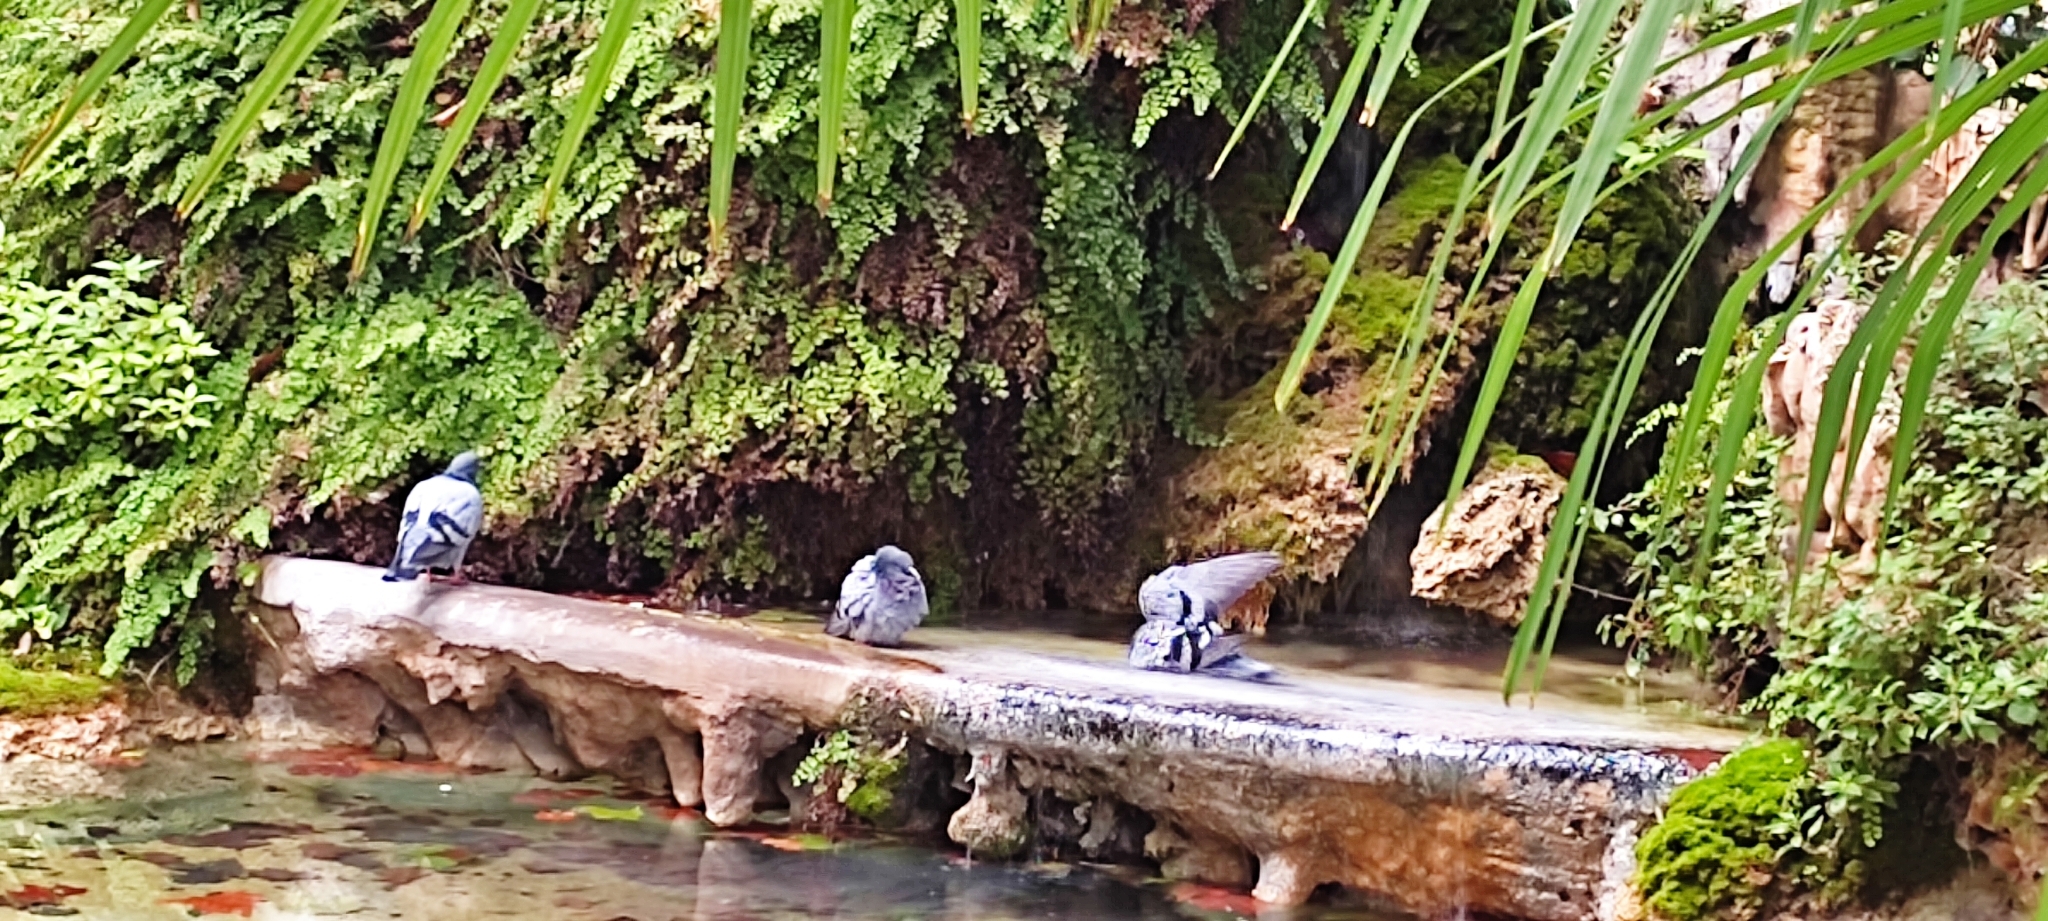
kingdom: Animalia
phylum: Chordata
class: Aves
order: Columbiformes
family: Columbidae
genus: Columba
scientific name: Columba livia
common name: Rock pigeon
